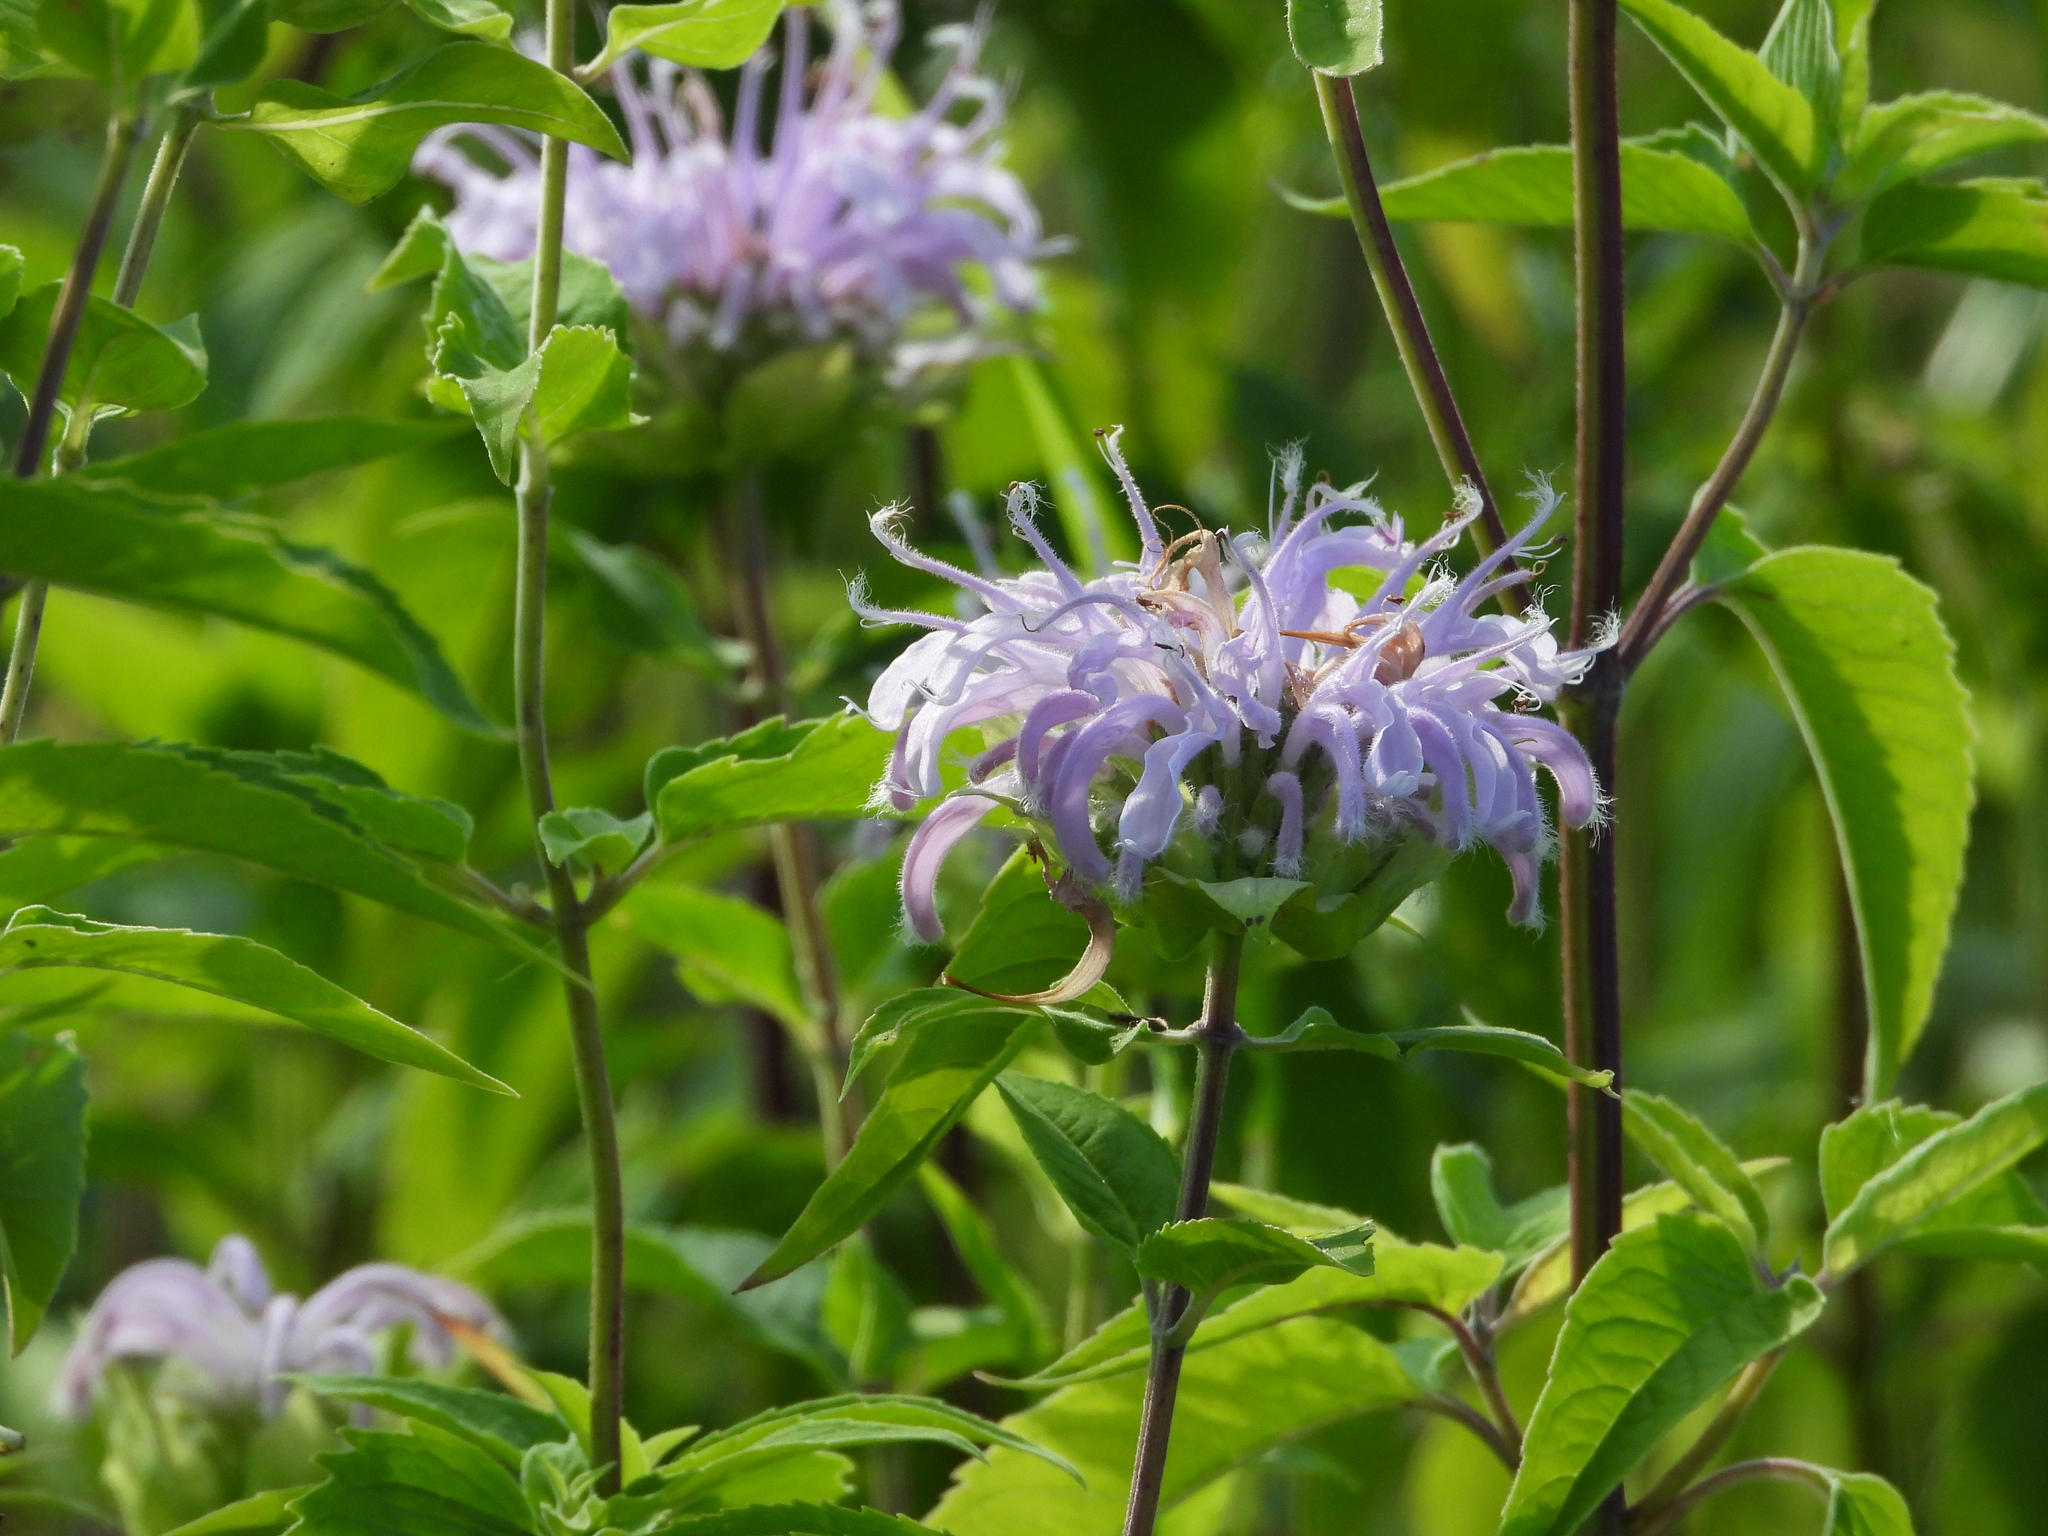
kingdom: Plantae
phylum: Tracheophyta
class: Magnoliopsida
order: Lamiales
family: Lamiaceae
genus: Monarda
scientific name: Monarda fistulosa
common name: Purple beebalm
